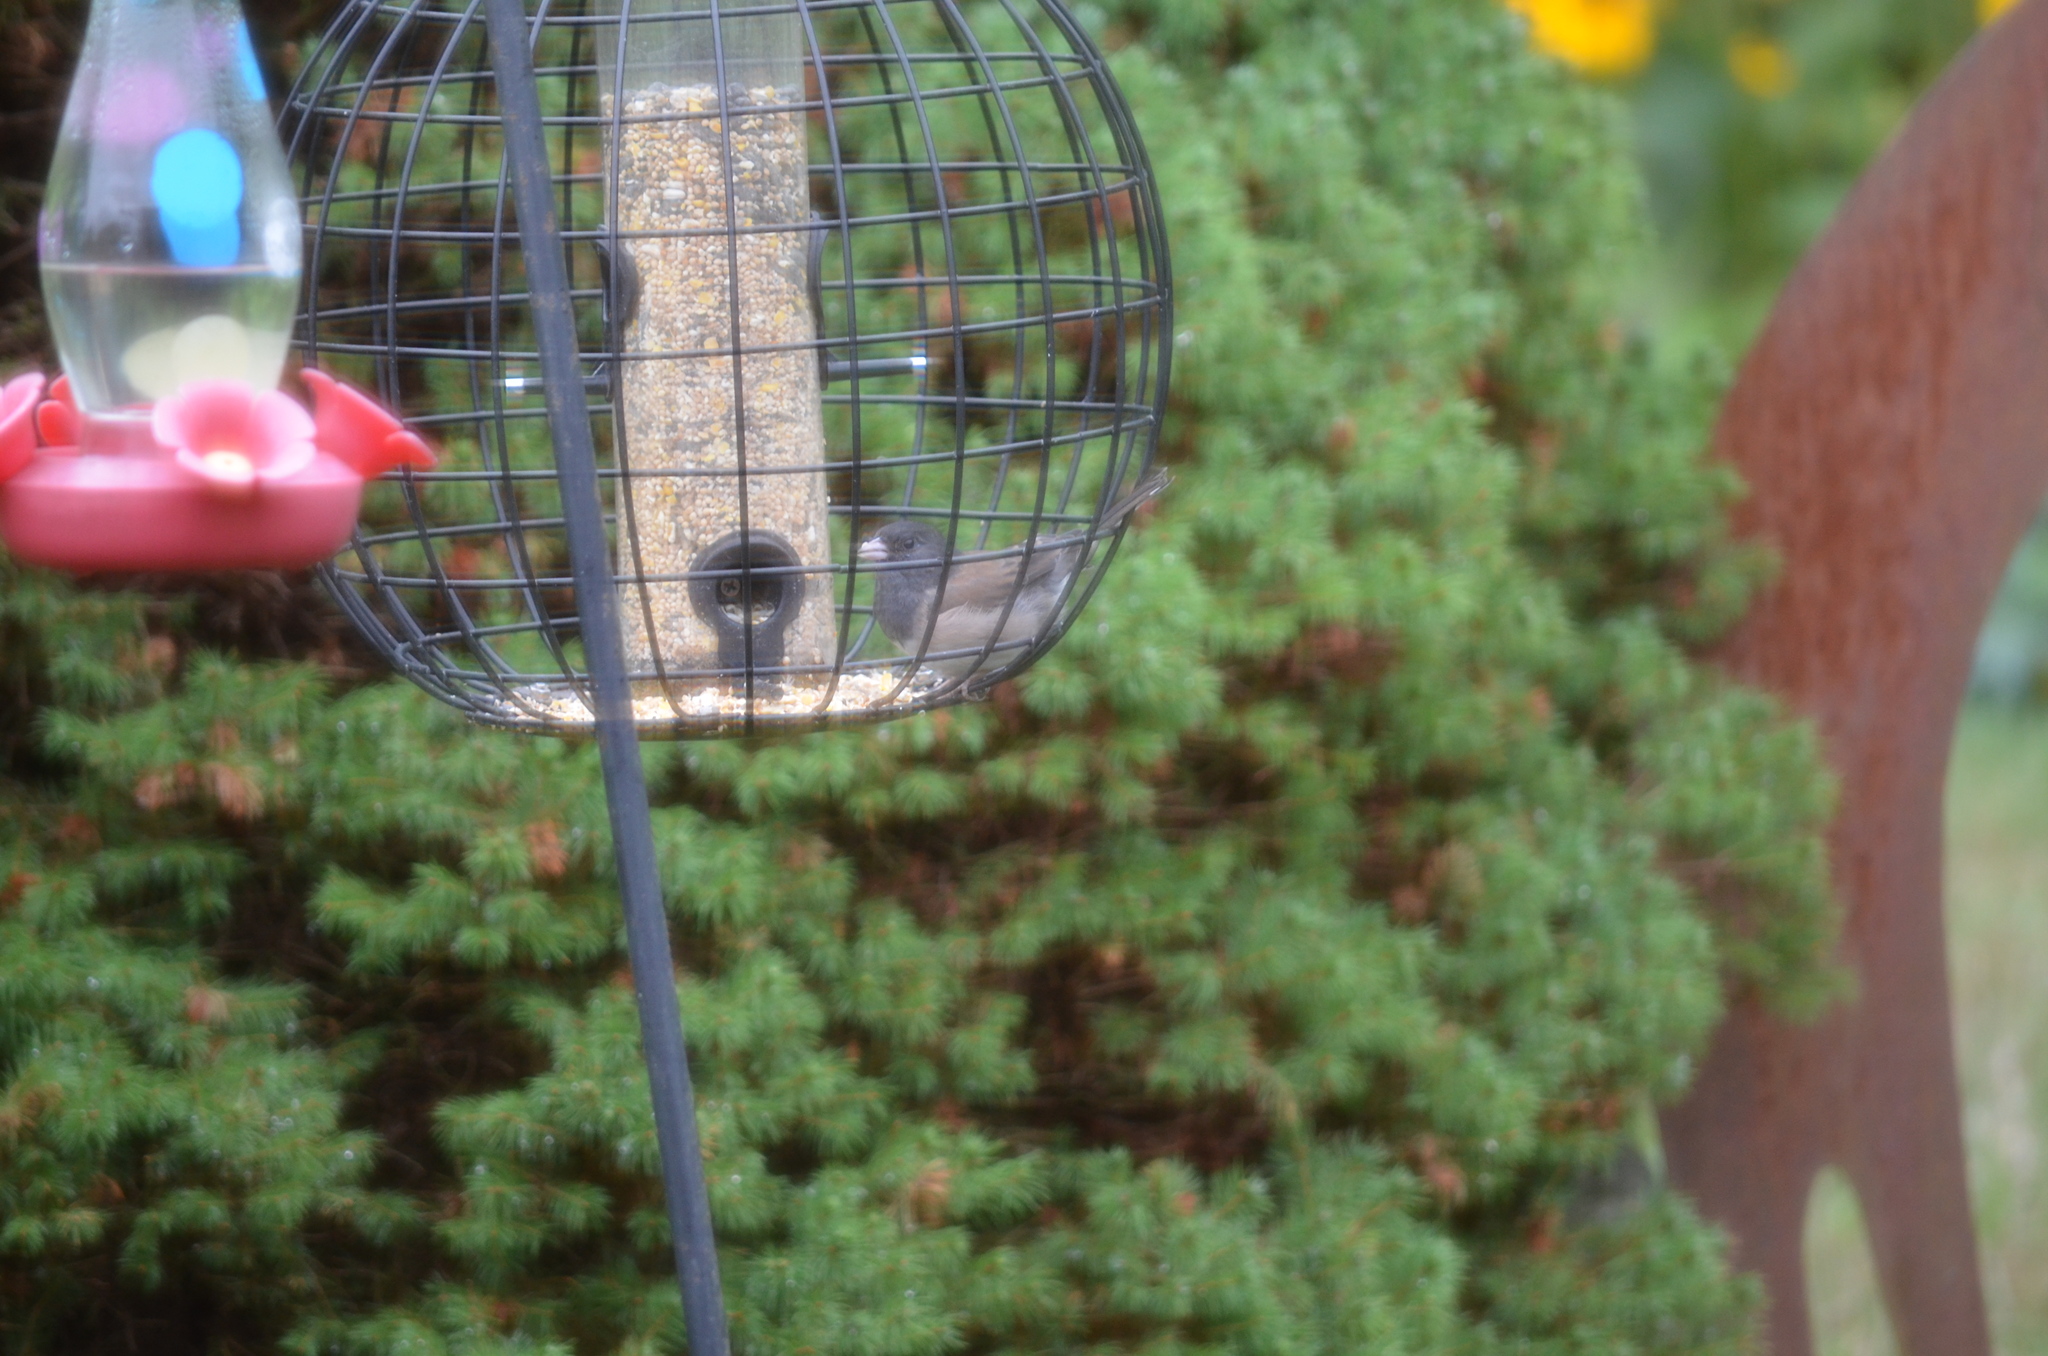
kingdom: Animalia
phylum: Chordata
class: Aves
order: Passeriformes
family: Passerellidae
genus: Junco
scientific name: Junco hyemalis
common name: Dark-eyed junco
